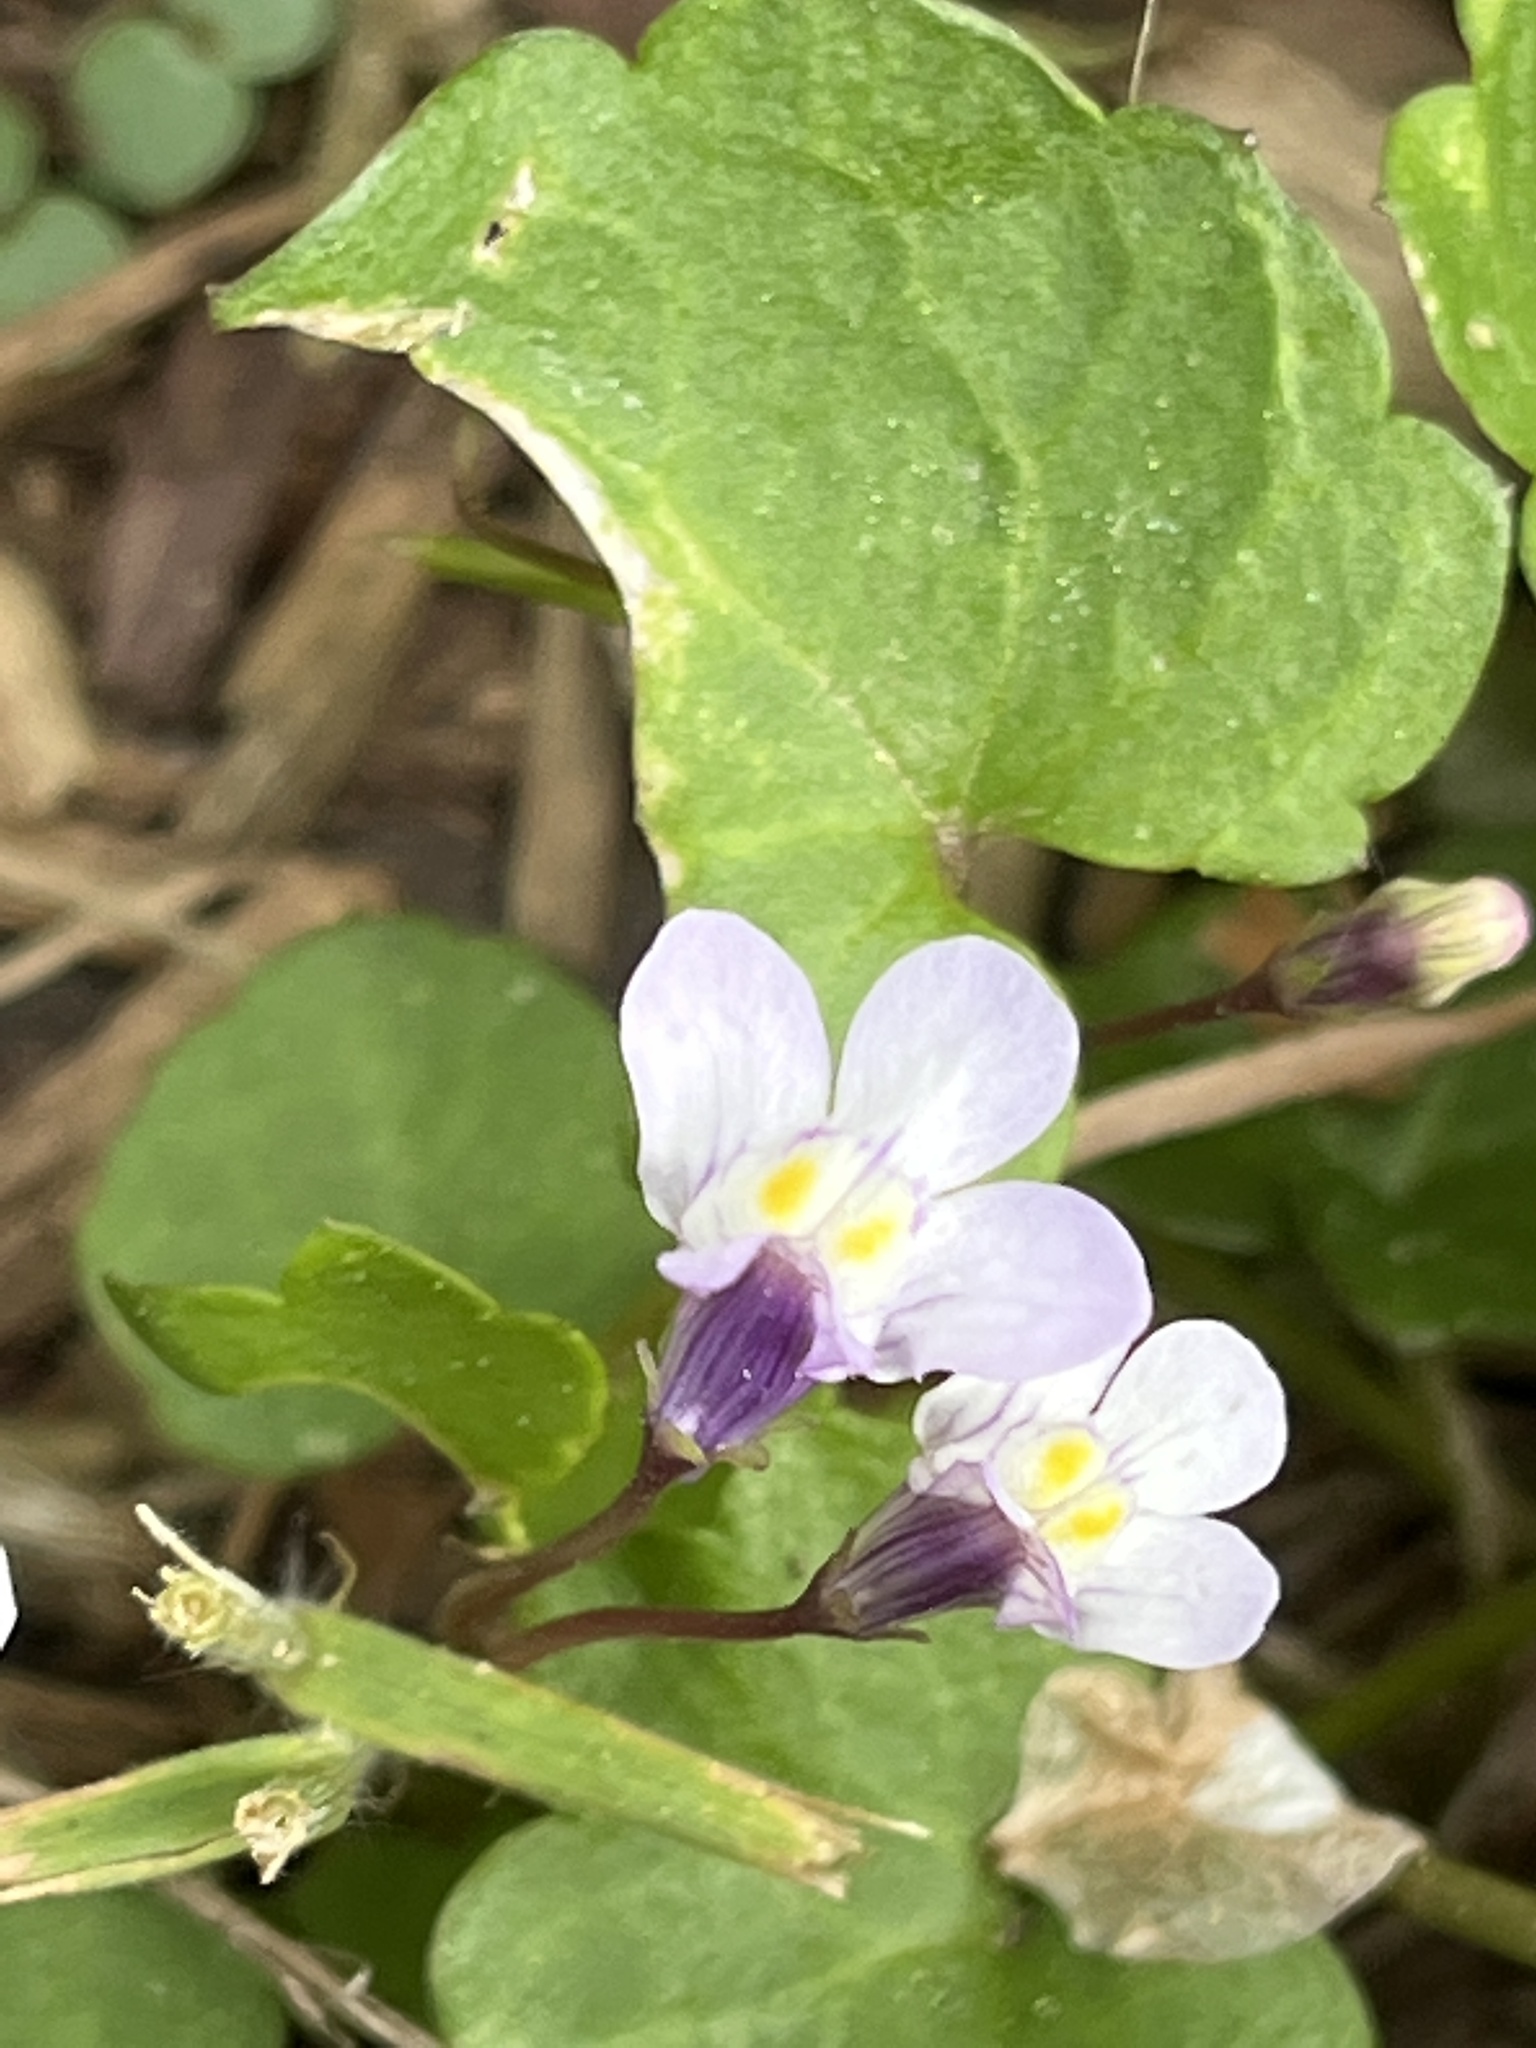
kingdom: Plantae
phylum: Tracheophyta
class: Magnoliopsida
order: Lamiales
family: Plantaginaceae
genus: Cymbalaria
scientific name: Cymbalaria muralis
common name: Ivy-leaved toadflax
